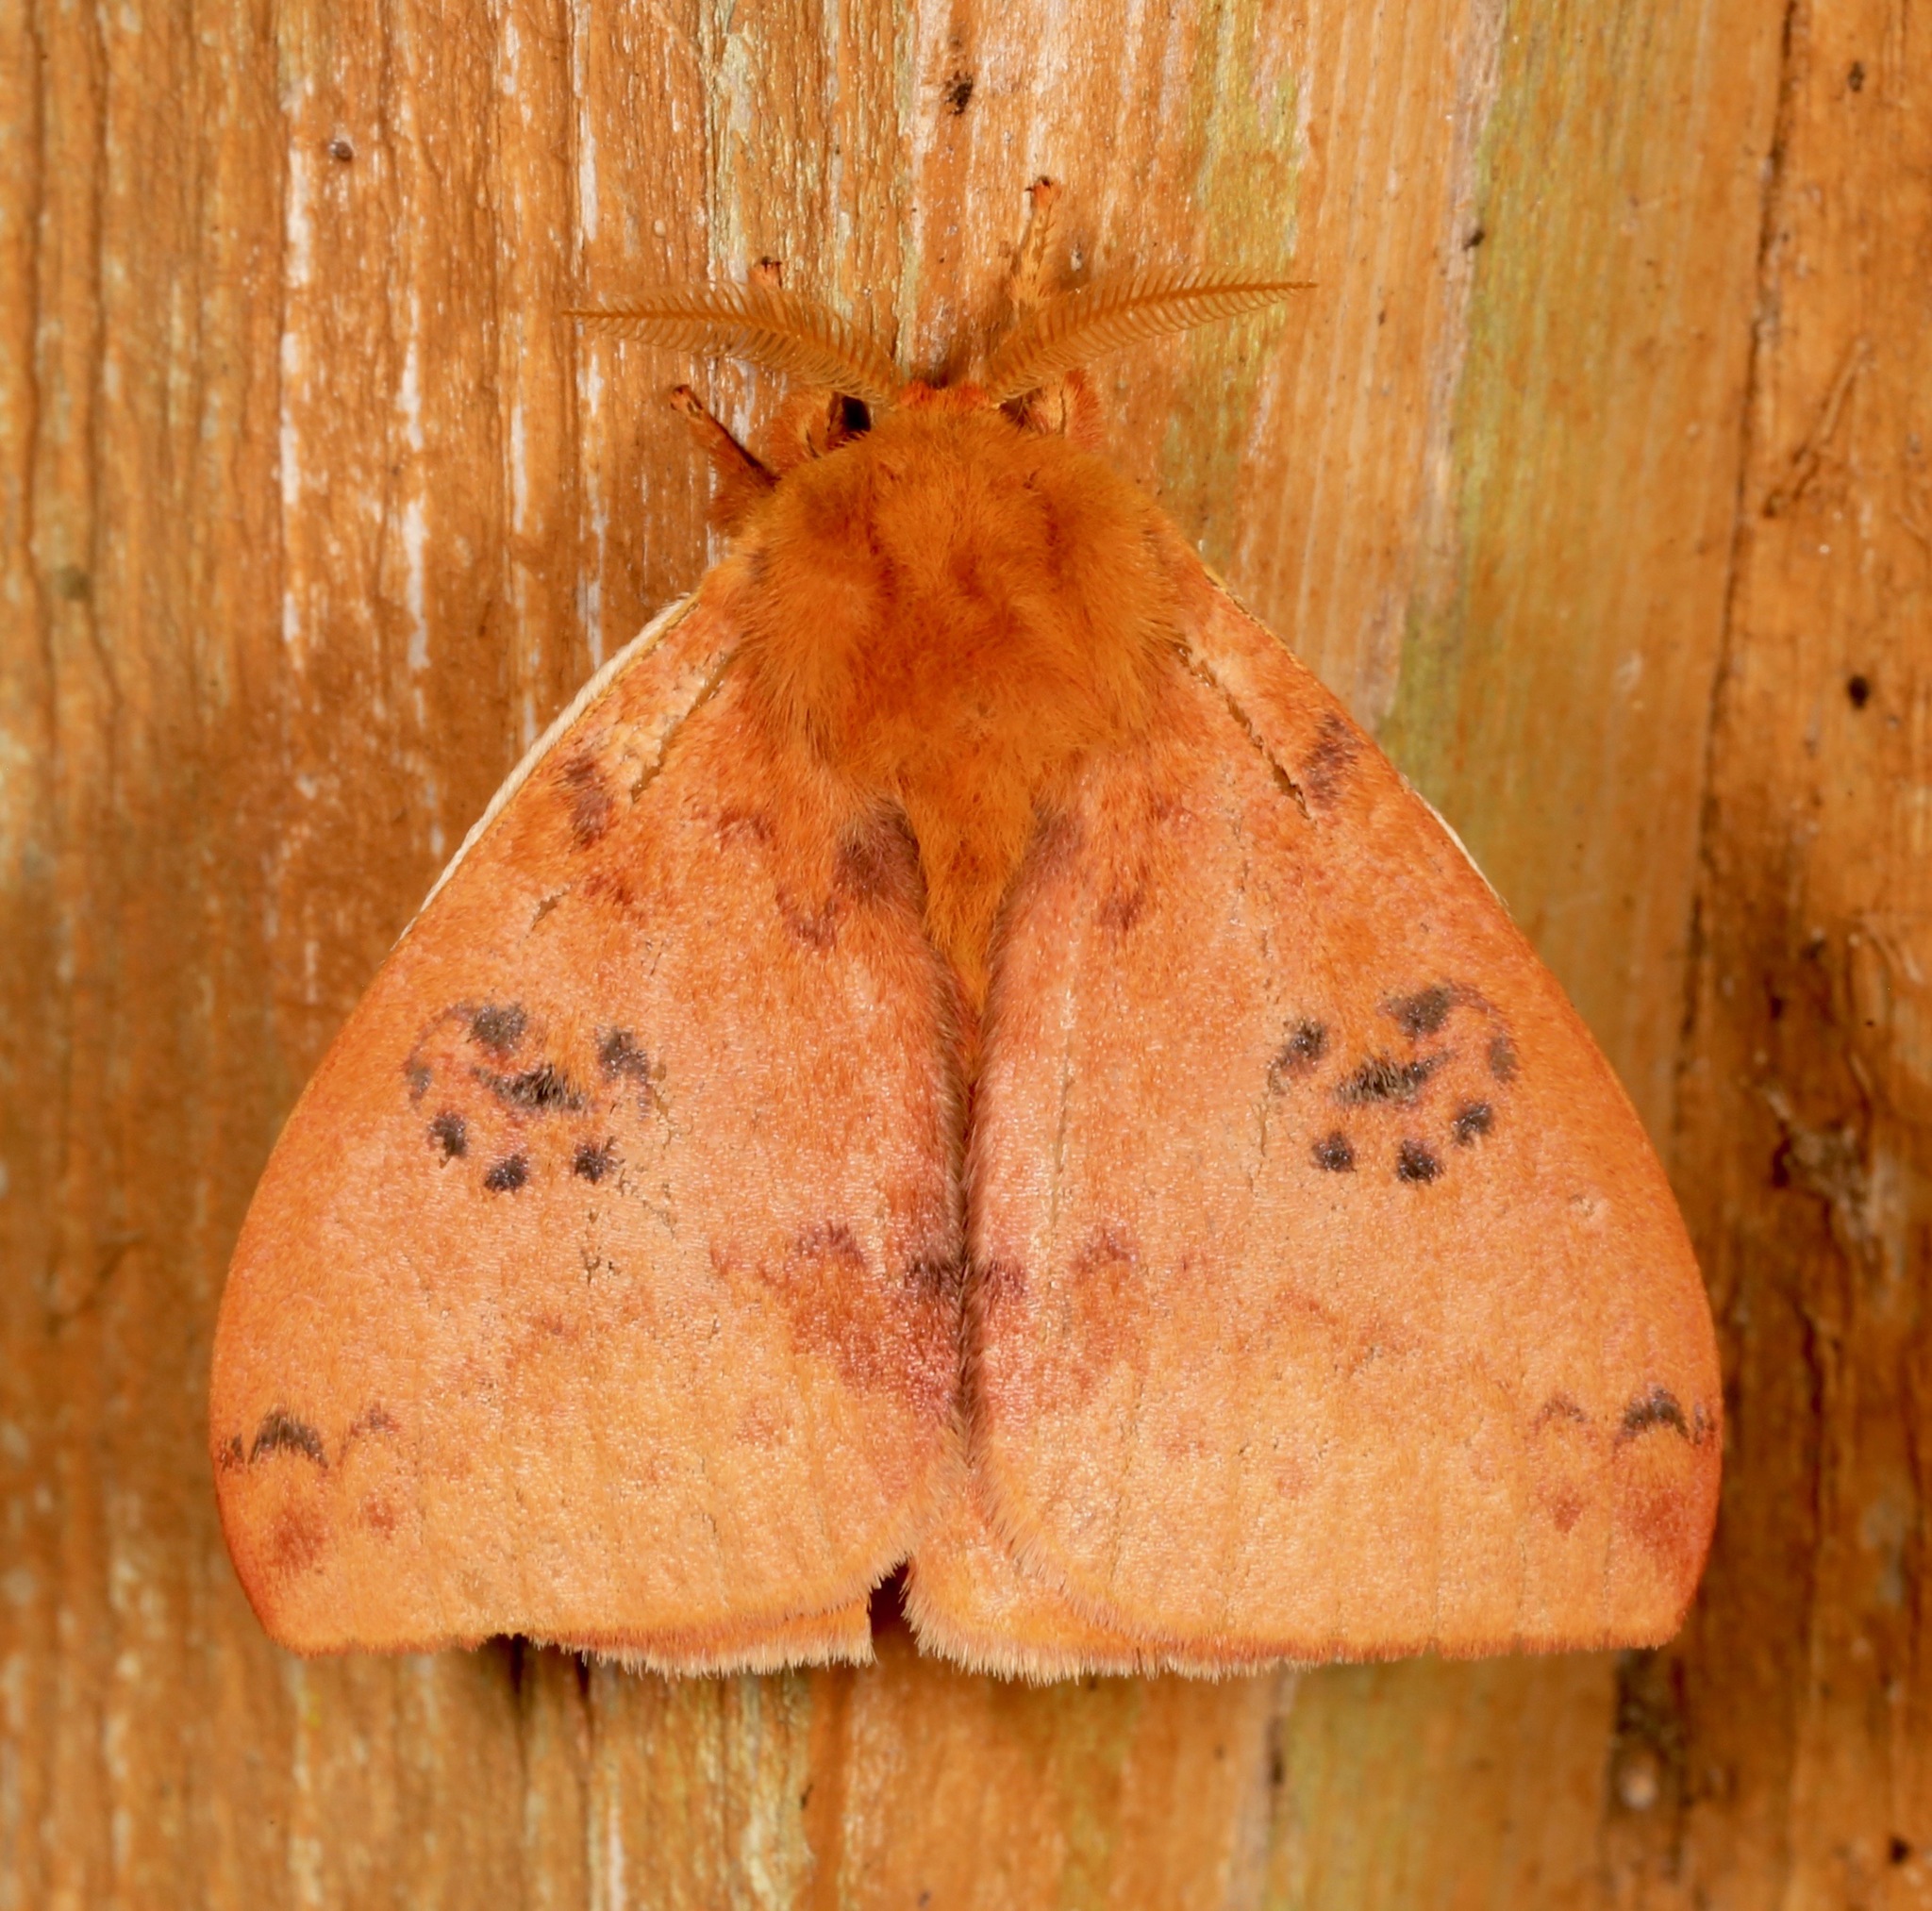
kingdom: Animalia
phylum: Arthropoda
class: Insecta
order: Lepidoptera
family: Saturniidae
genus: Automeris
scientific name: Automeris io
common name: Io moth
